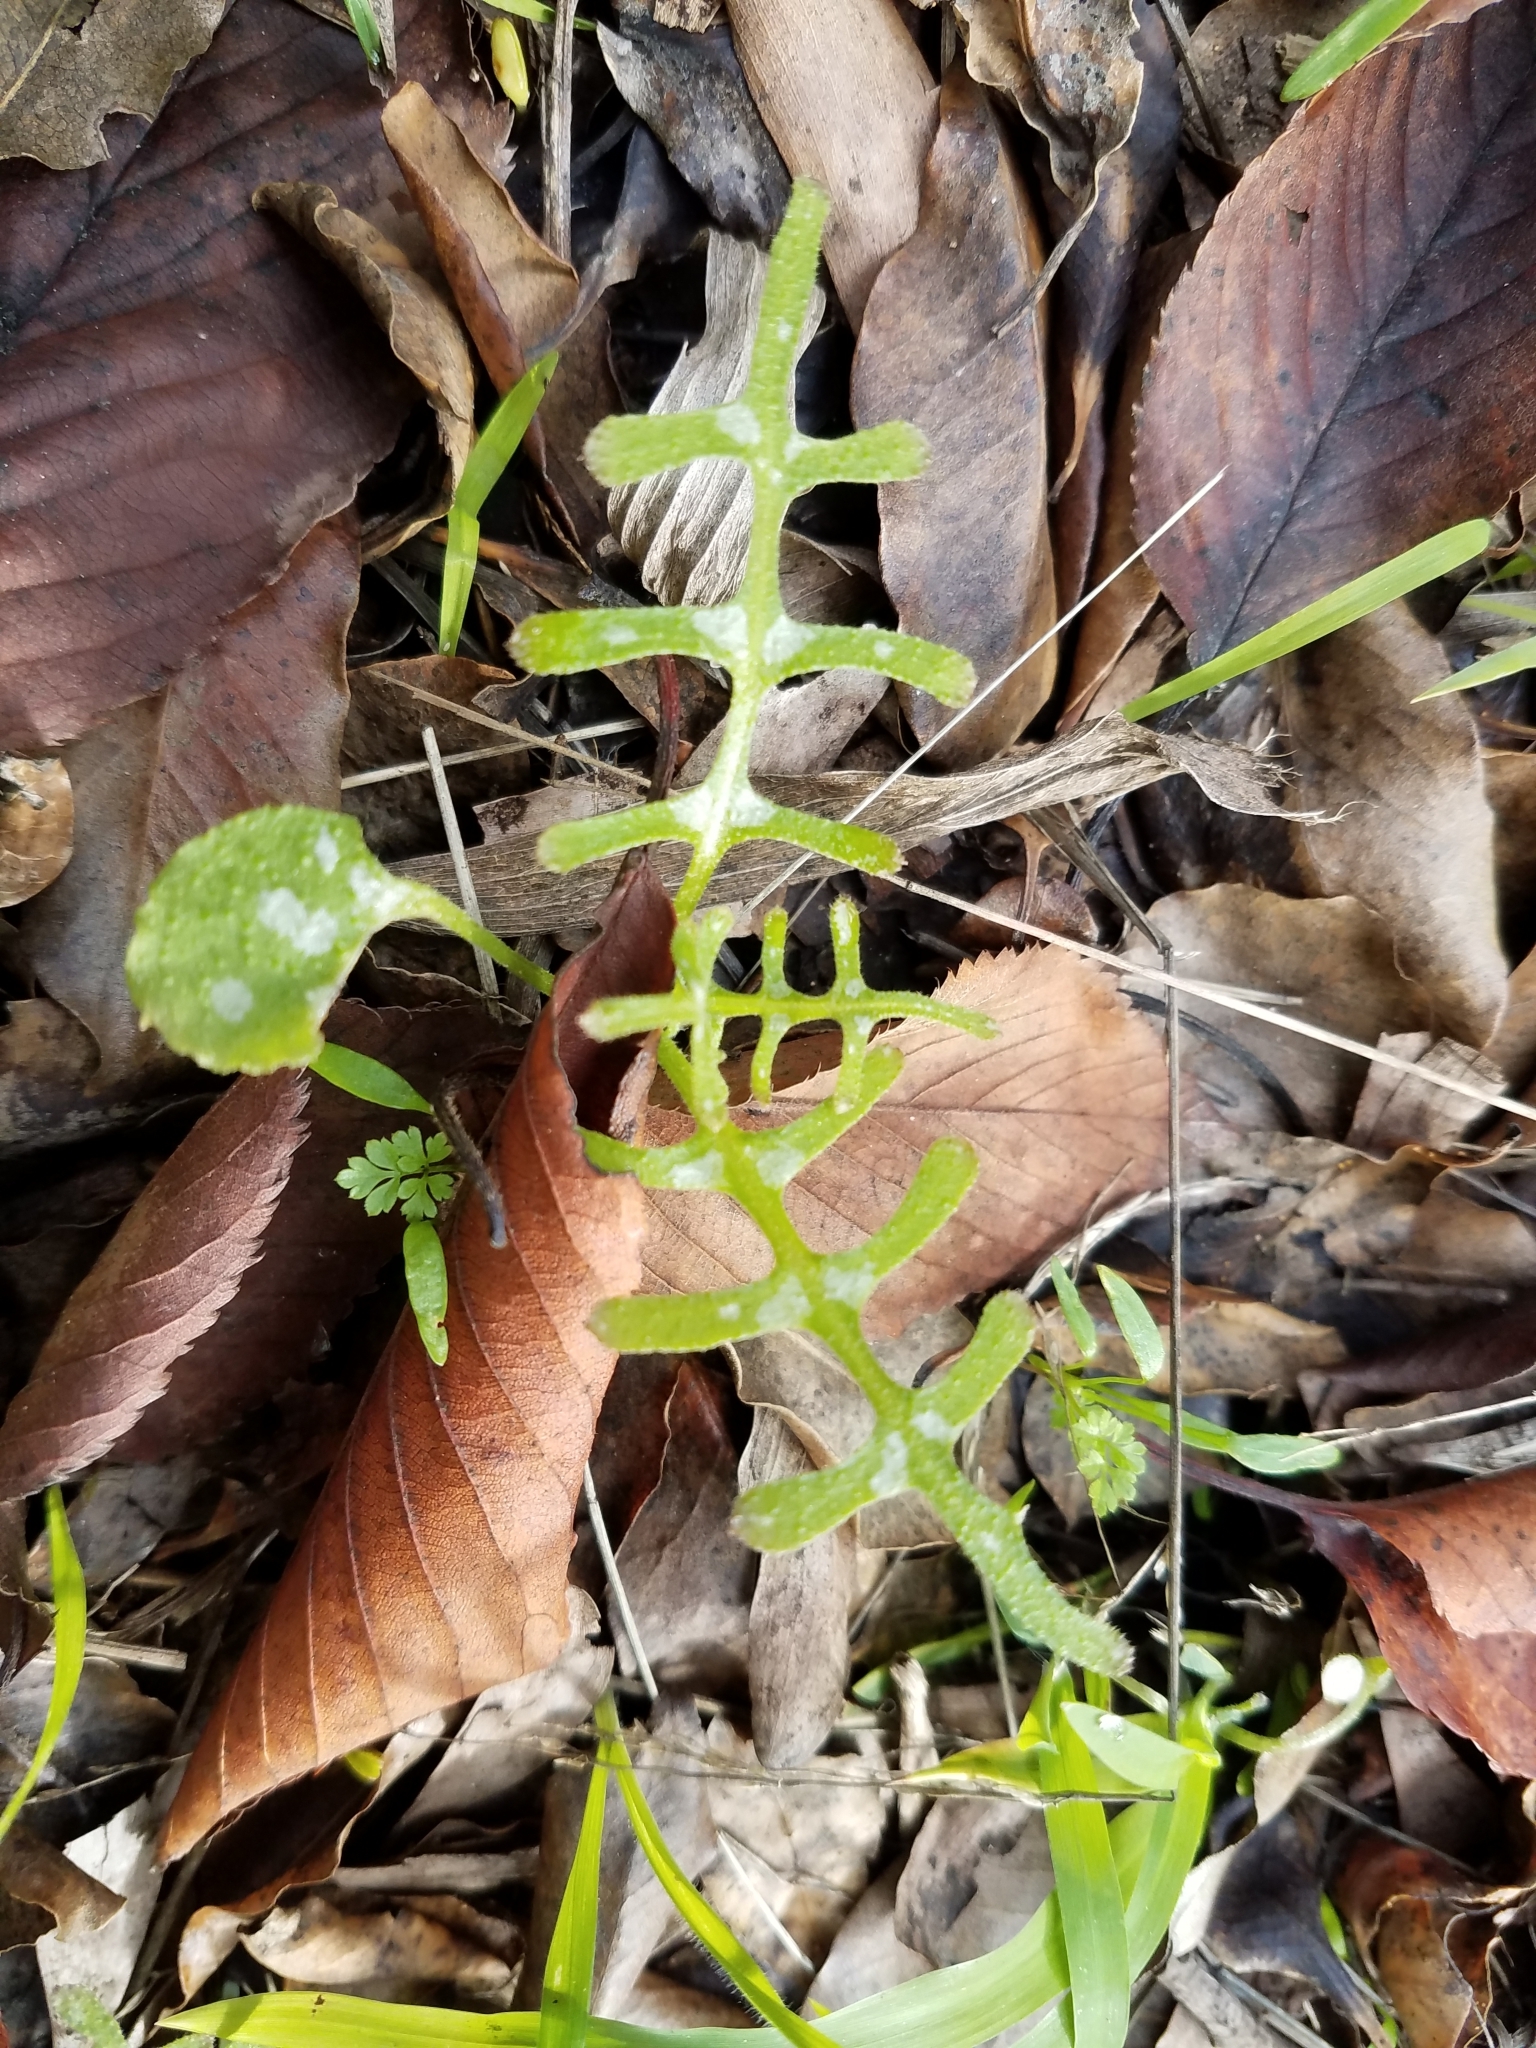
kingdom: Plantae
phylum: Tracheophyta
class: Magnoliopsida
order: Boraginales
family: Hydrophyllaceae
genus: Pholistoma
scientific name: Pholistoma auritum
